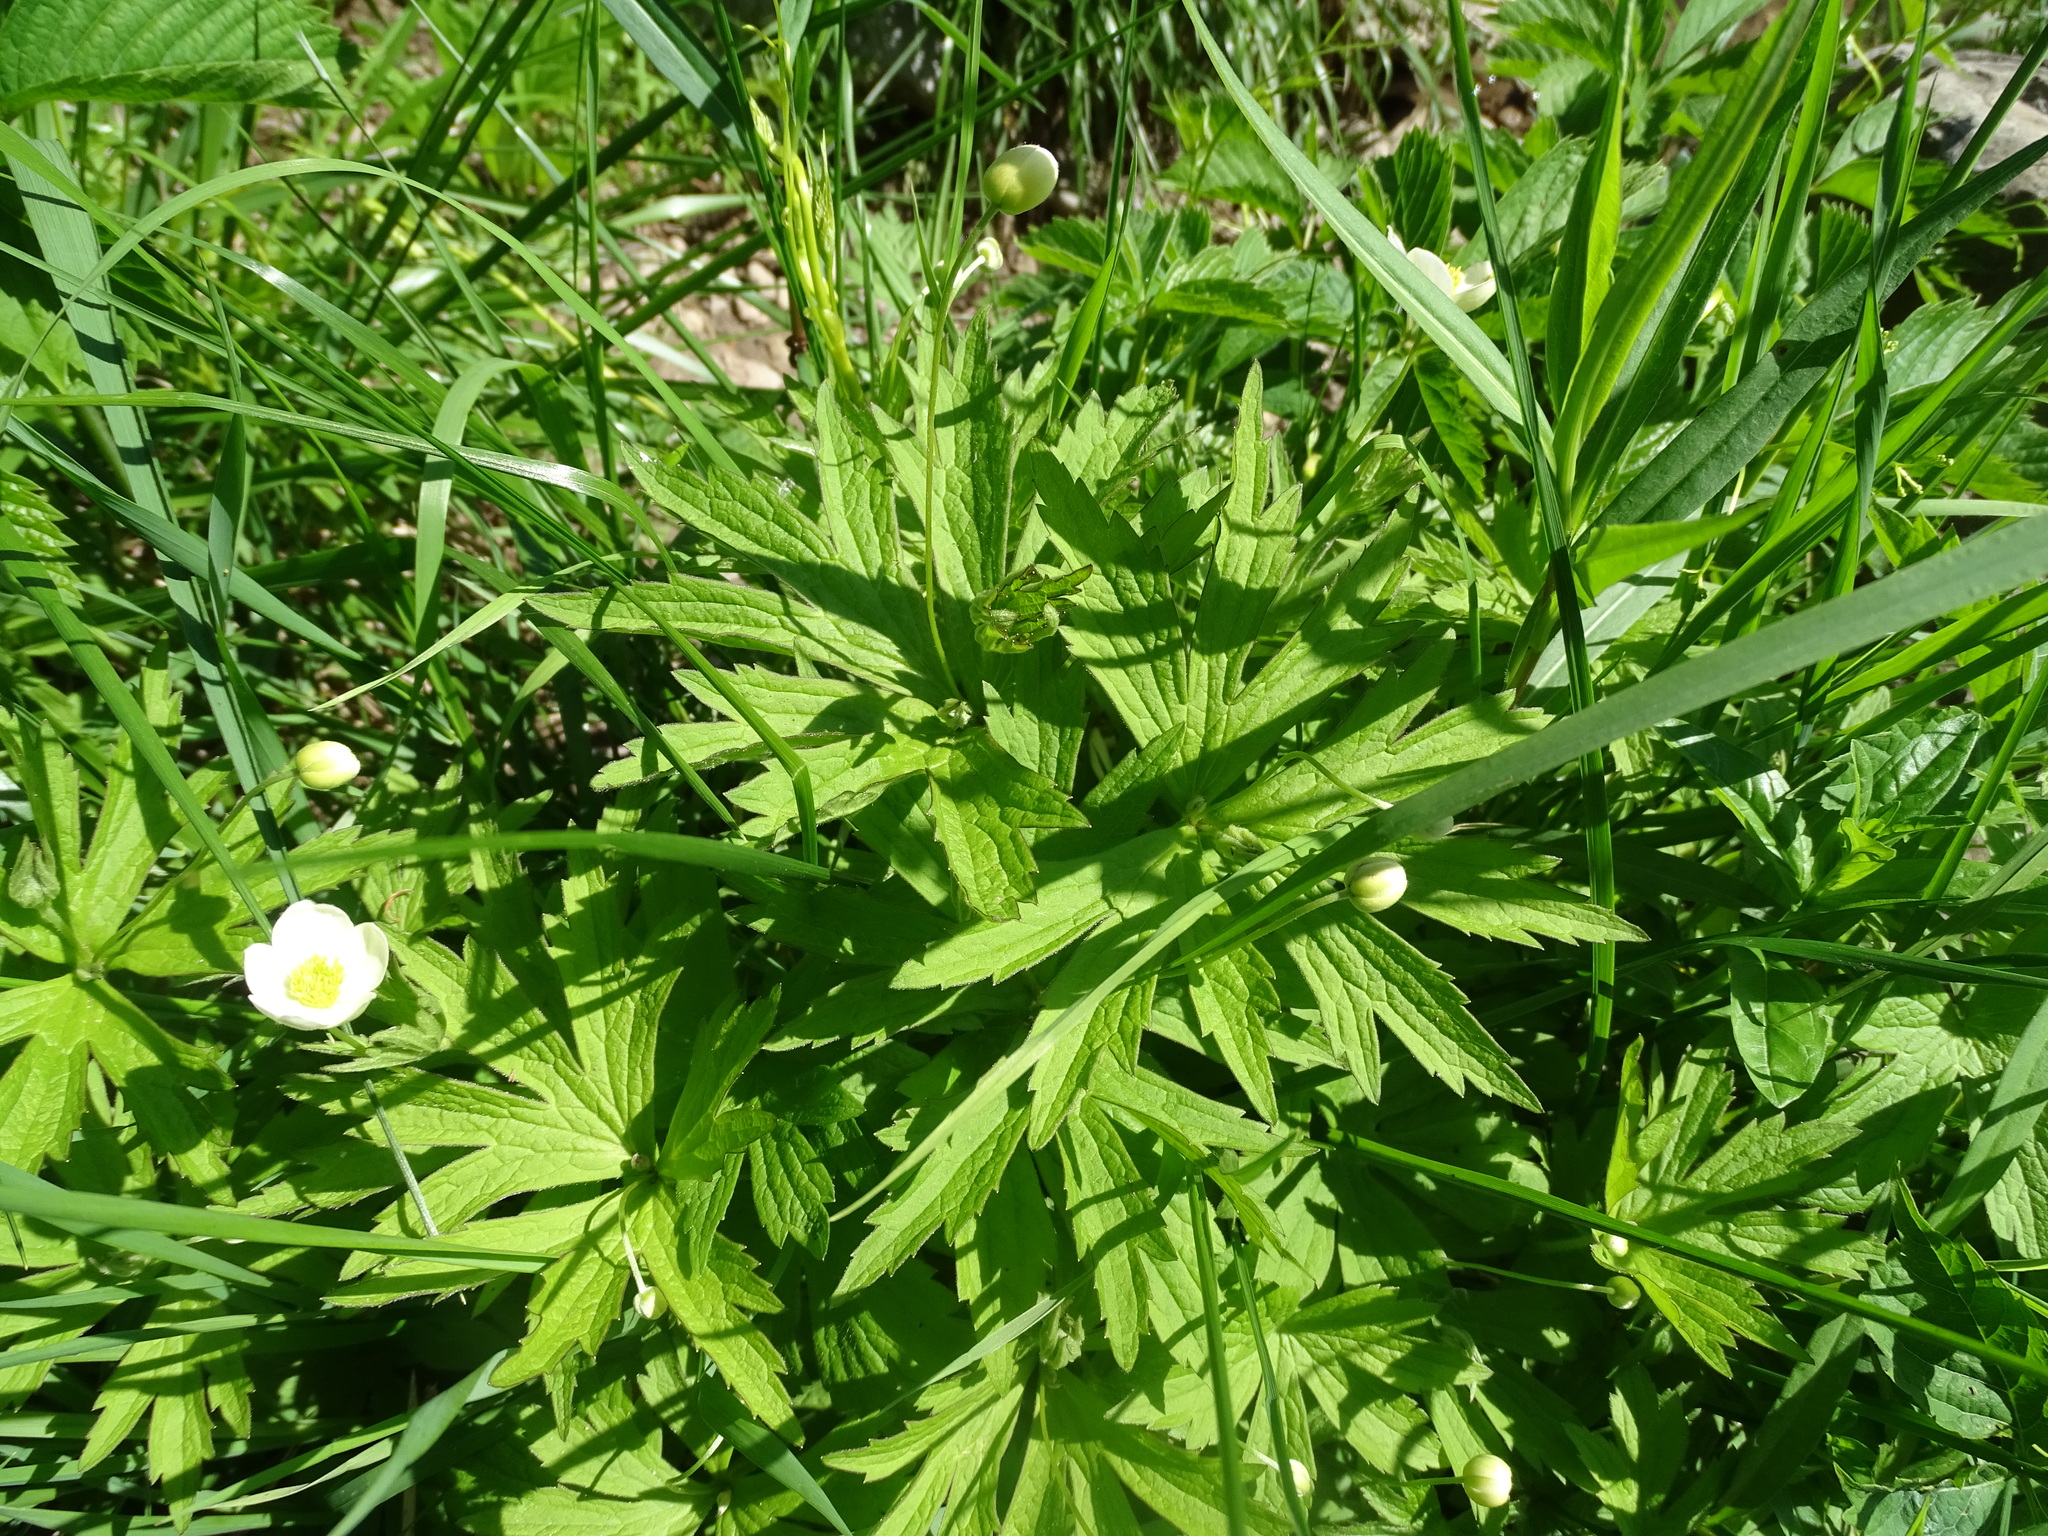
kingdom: Plantae
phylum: Tracheophyta
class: Magnoliopsida
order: Ranunculales
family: Ranunculaceae
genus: Anemonastrum
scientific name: Anemonastrum canadense
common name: Canada anemone
